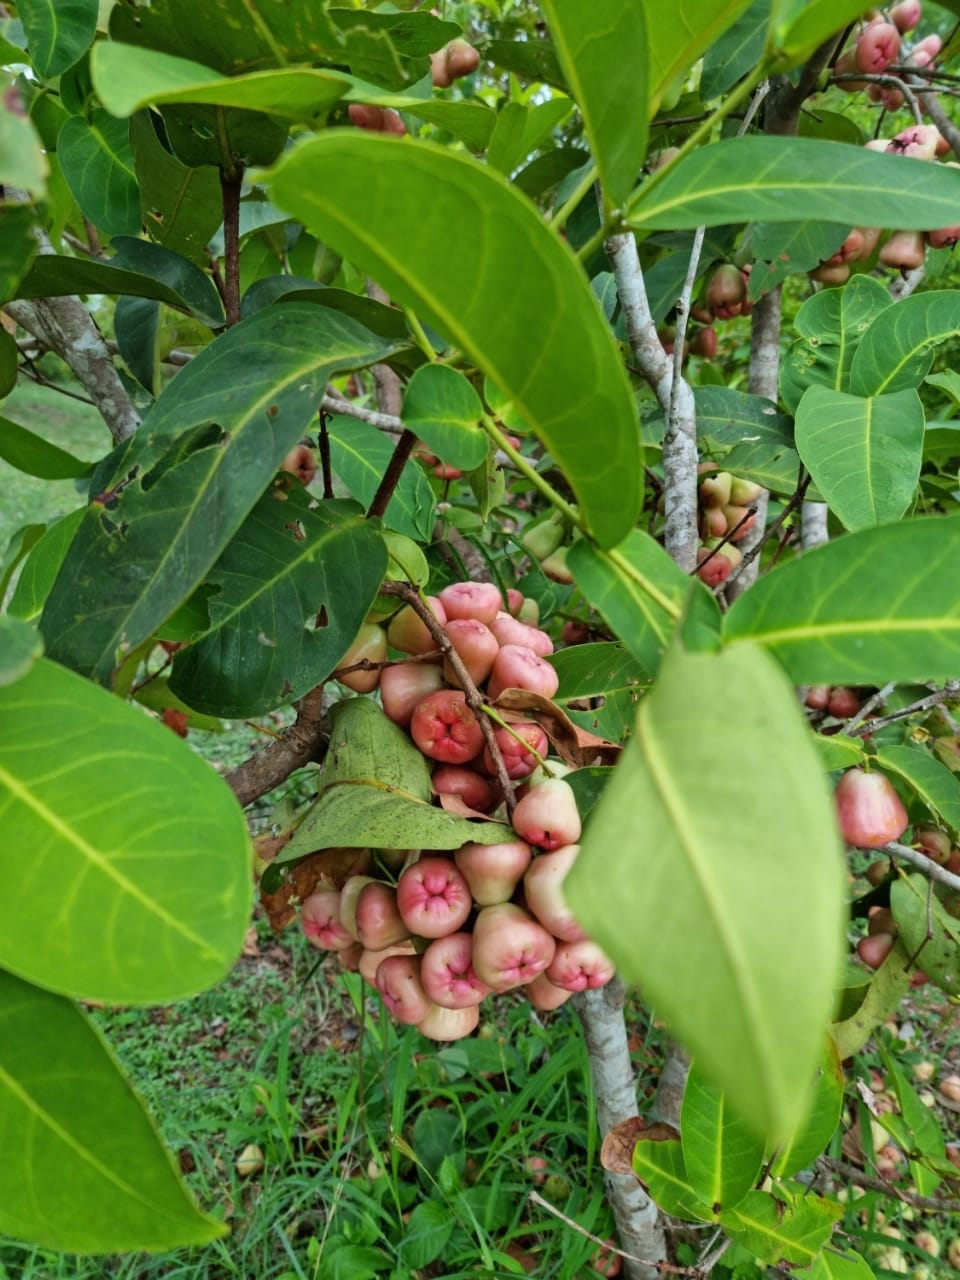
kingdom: Plantae
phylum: Tracheophyta
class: Magnoliopsida
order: Myrtales
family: Myrtaceae
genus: Syzygium
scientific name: Syzygium samarangense
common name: Semarang rose-apple
